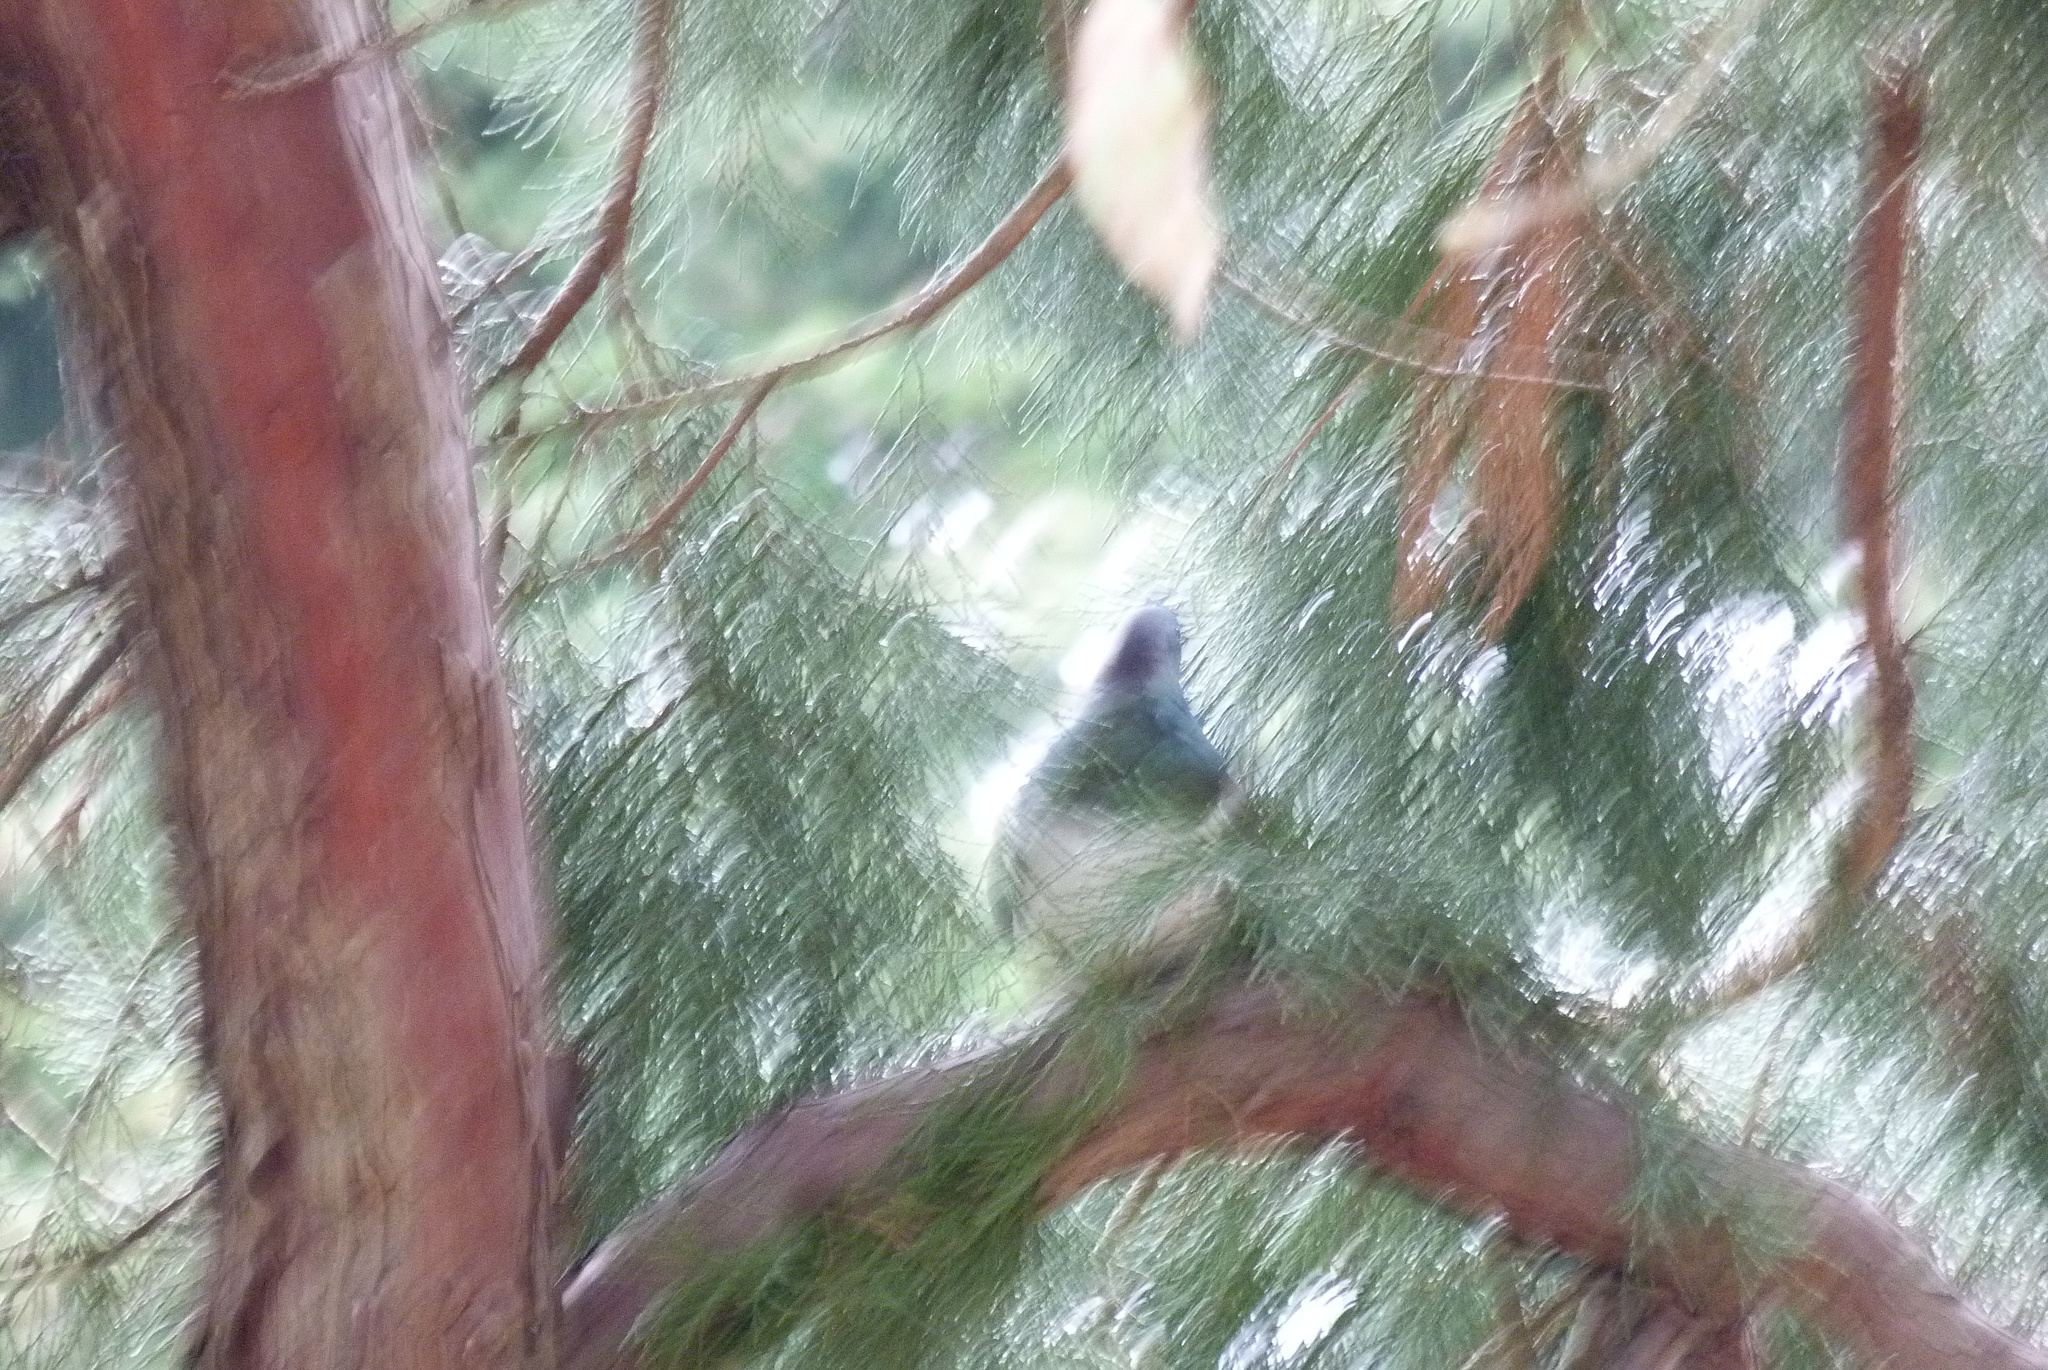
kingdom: Animalia
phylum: Chordata
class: Aves
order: Columbiformes
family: Columbidae
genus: Hemiphaga
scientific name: Hemiphaga novaeseelandiae
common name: New zealand pigeon
